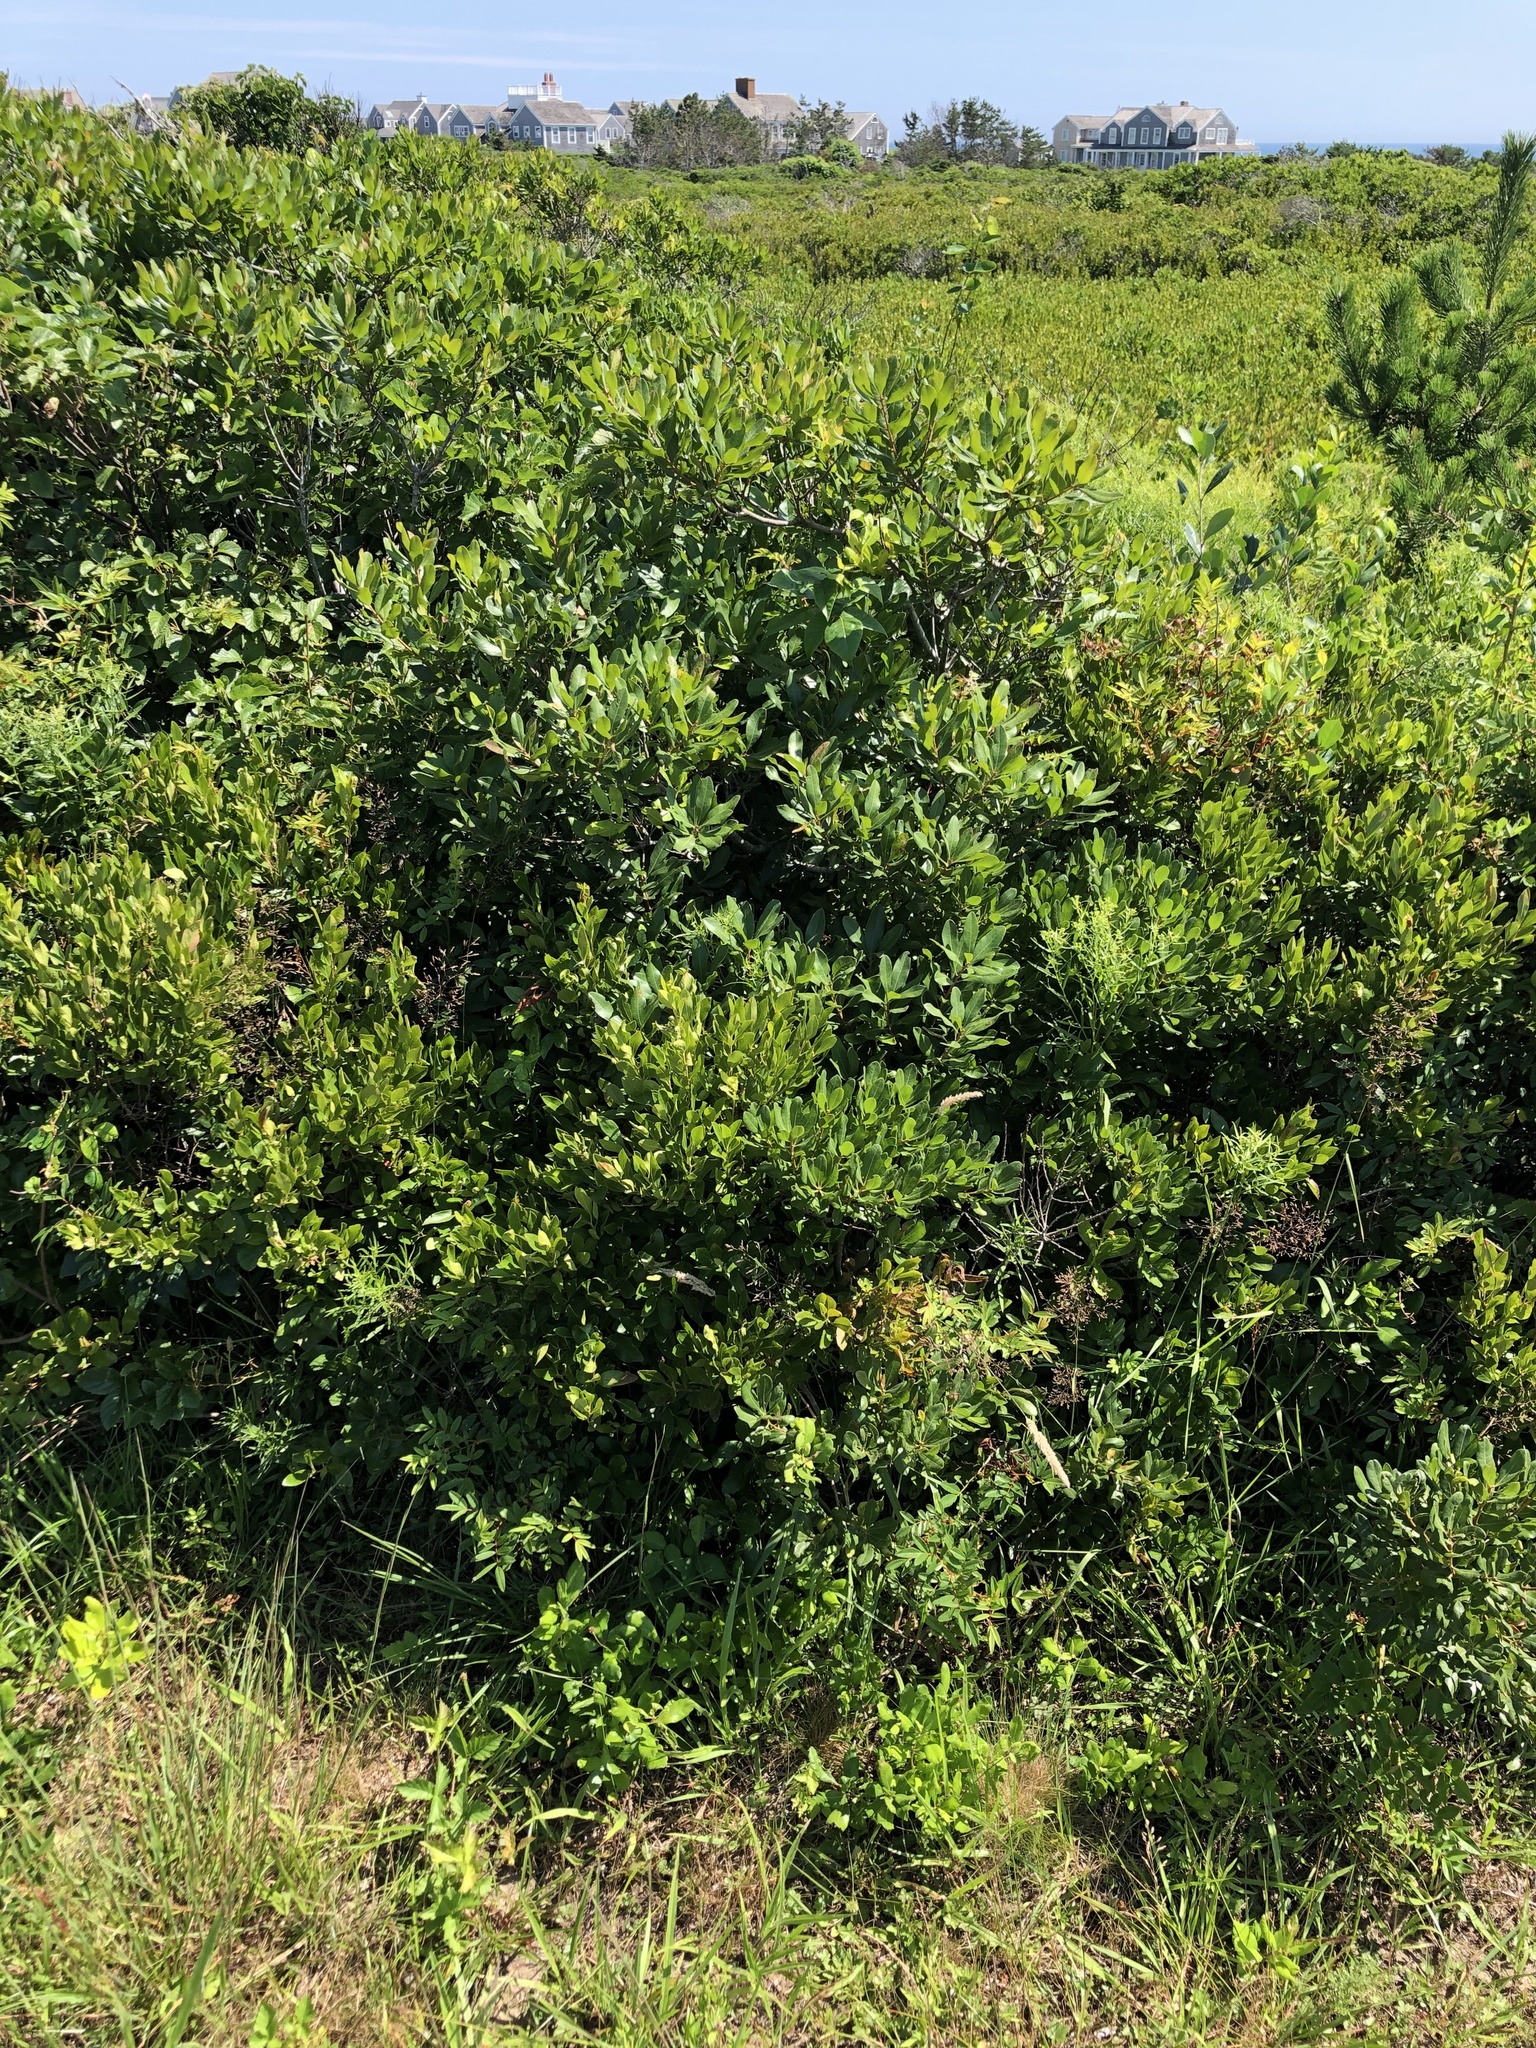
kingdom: Plantae
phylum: Tracheophyta
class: Magnoliopsida
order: Fagales
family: Myricaceae
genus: Morella
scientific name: Morella pensylvanica
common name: Northern bayberry
